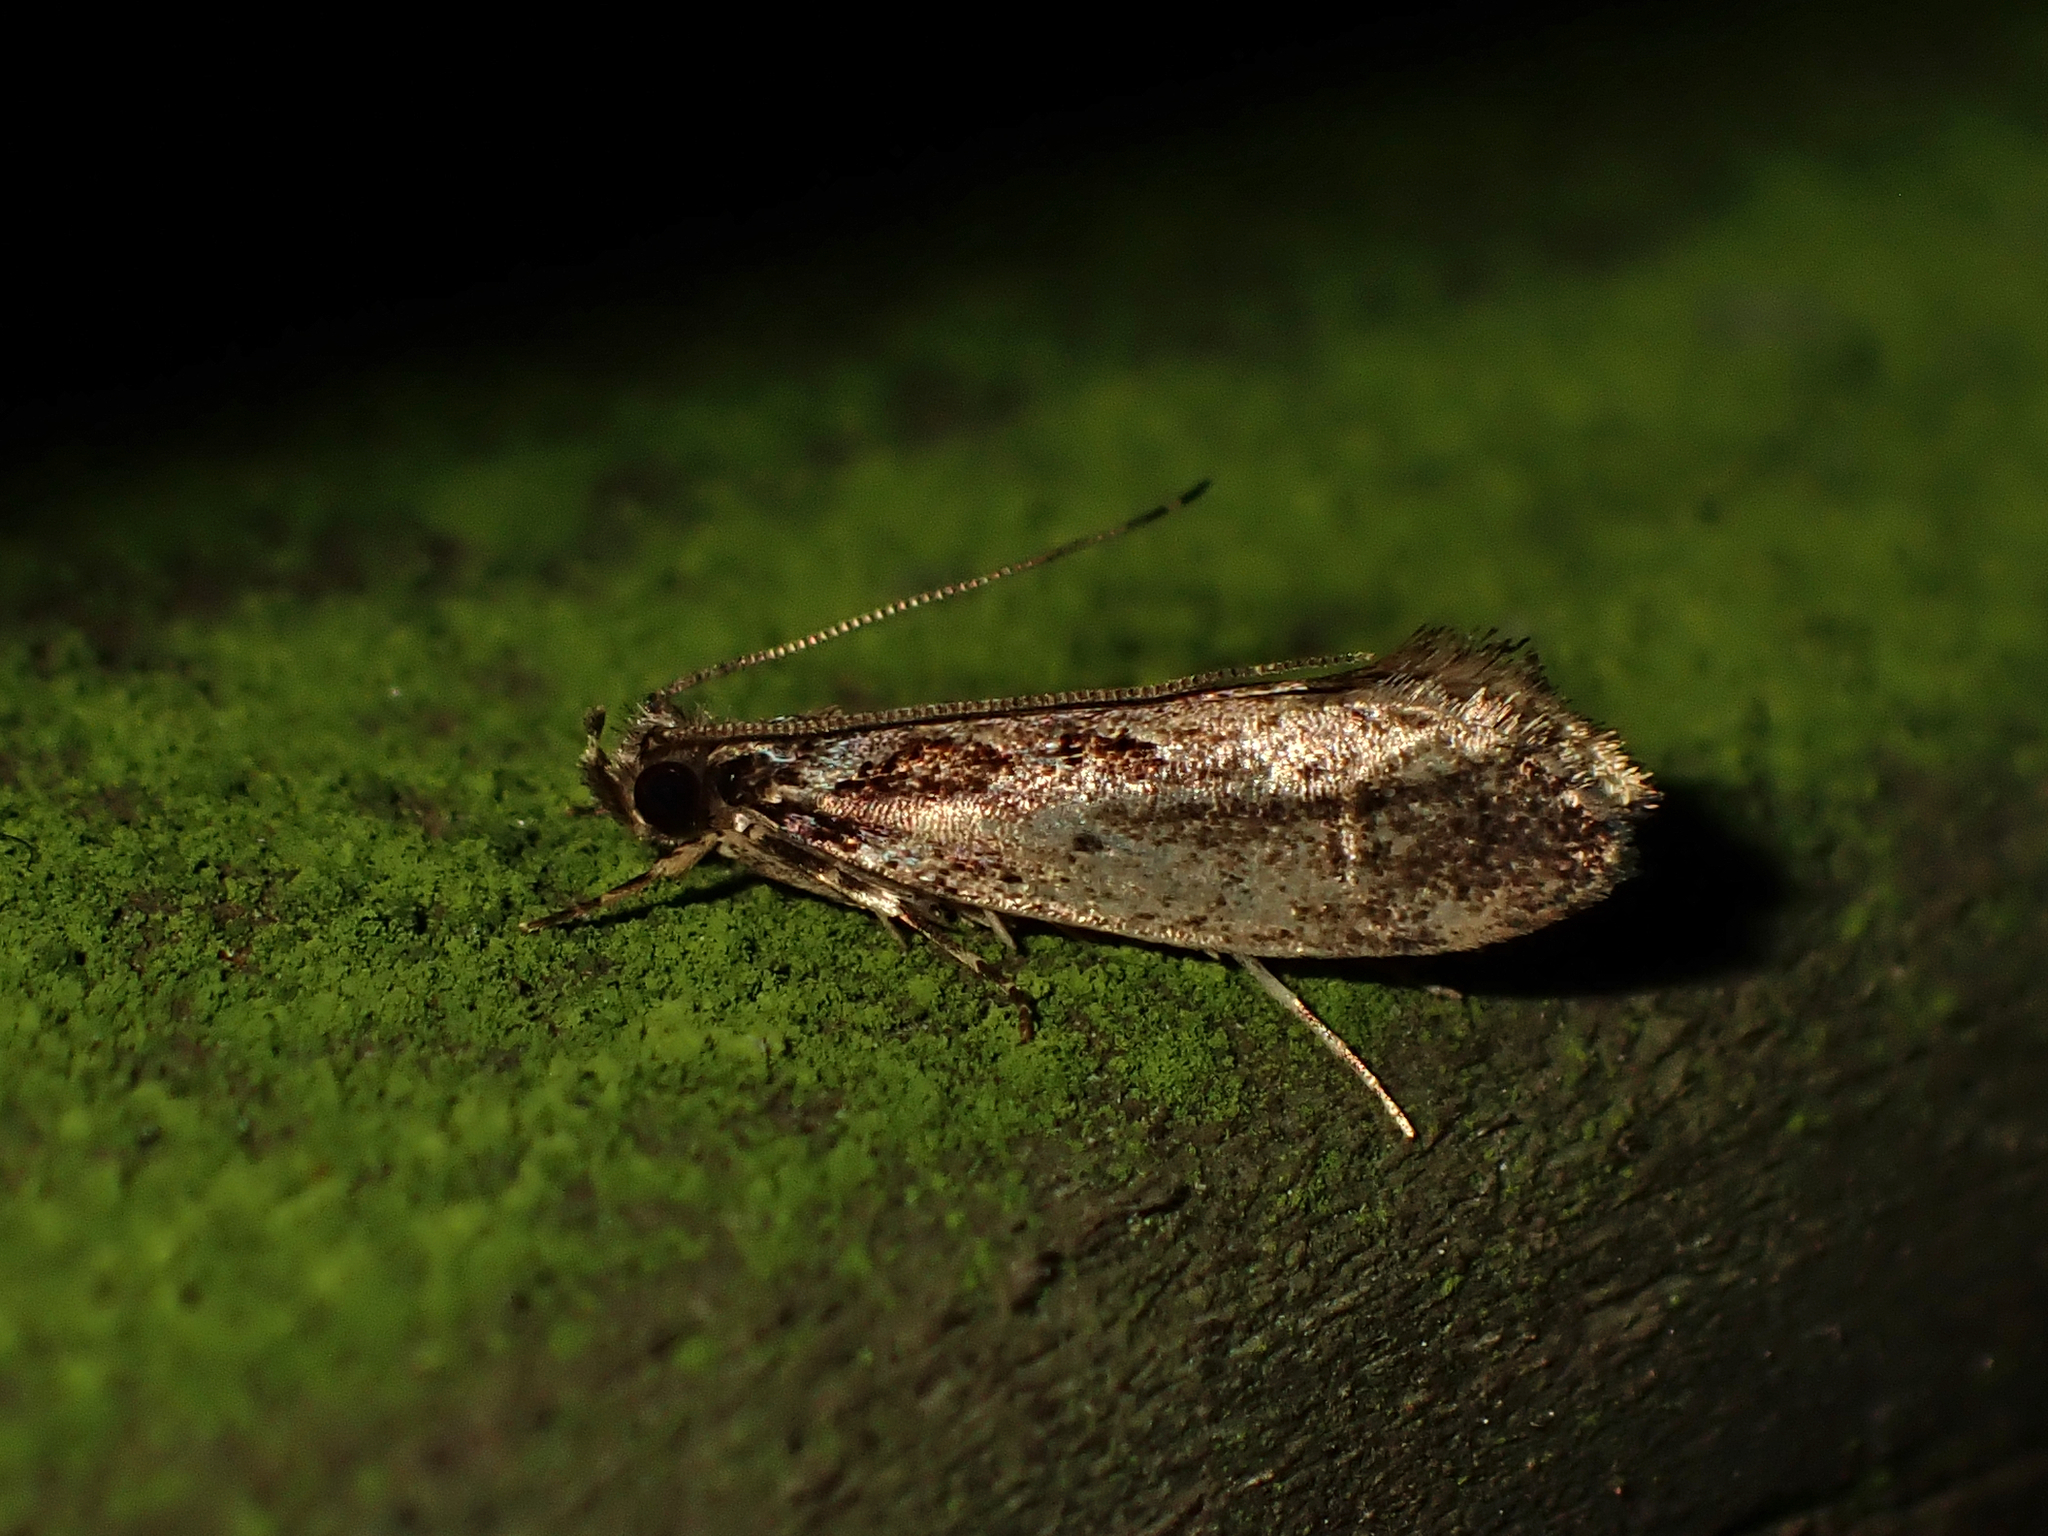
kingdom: Animalia
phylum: Arthropoda
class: Insecta
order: Lepidoptera
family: Tineidae
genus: Erechthias
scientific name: Erechthias capnitis
